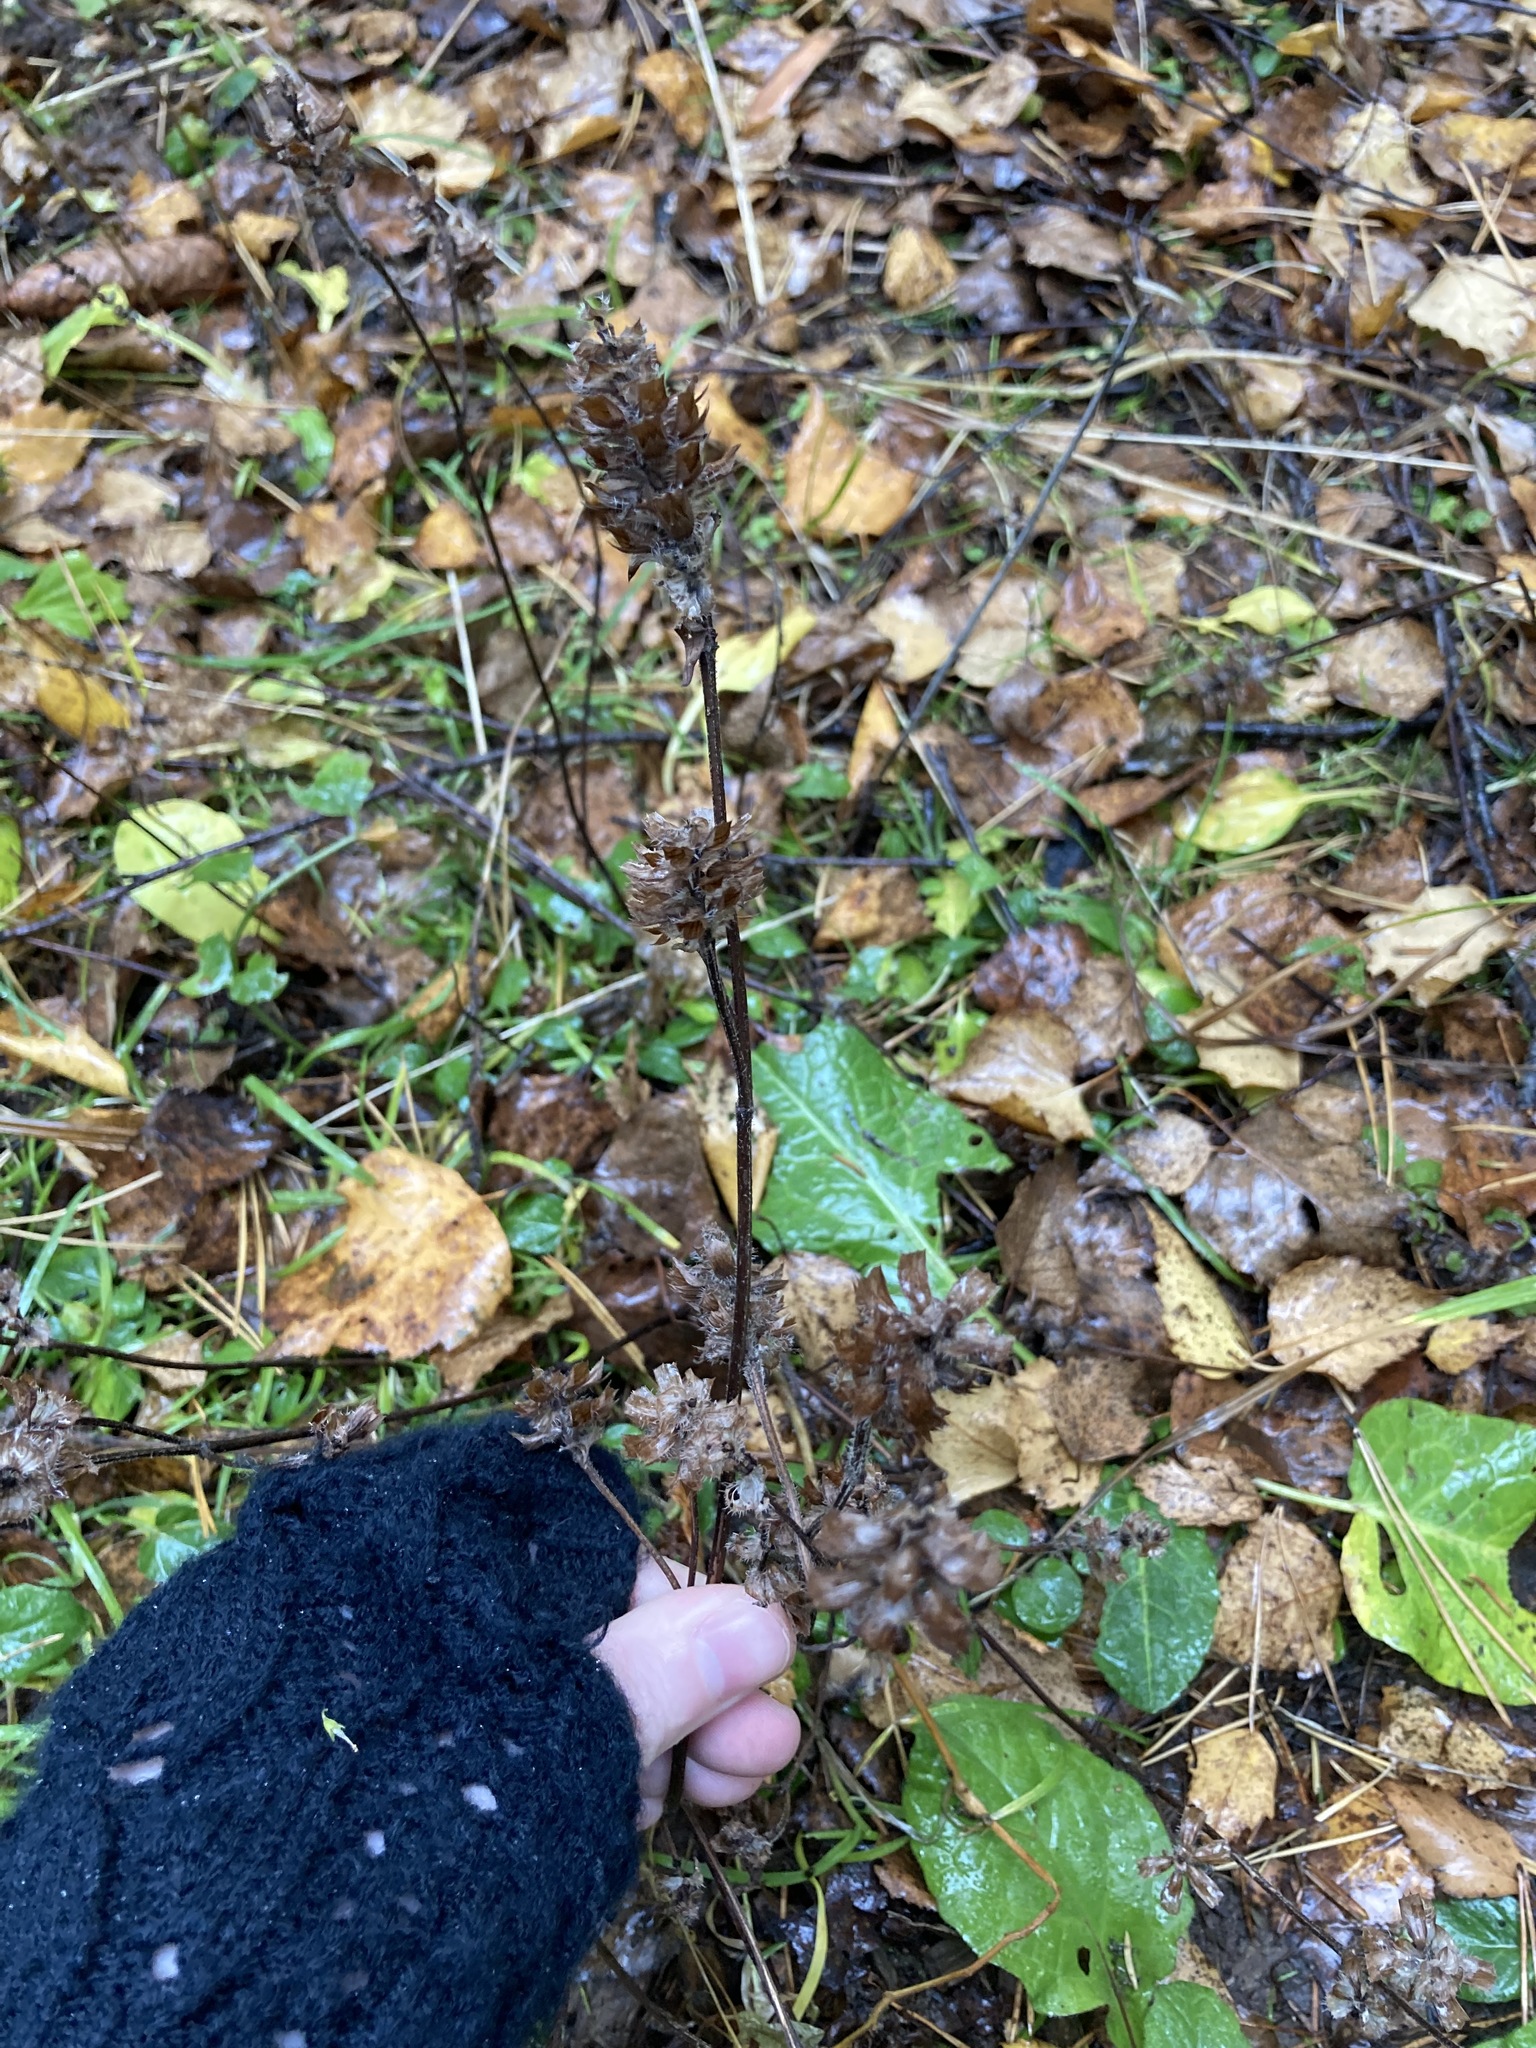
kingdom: Plantae
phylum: Tracheophyta
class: Magnoliopsida
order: Lamiales
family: Lamiaceae
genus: Prunella
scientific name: Prunella vulgaris
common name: Heal-all
